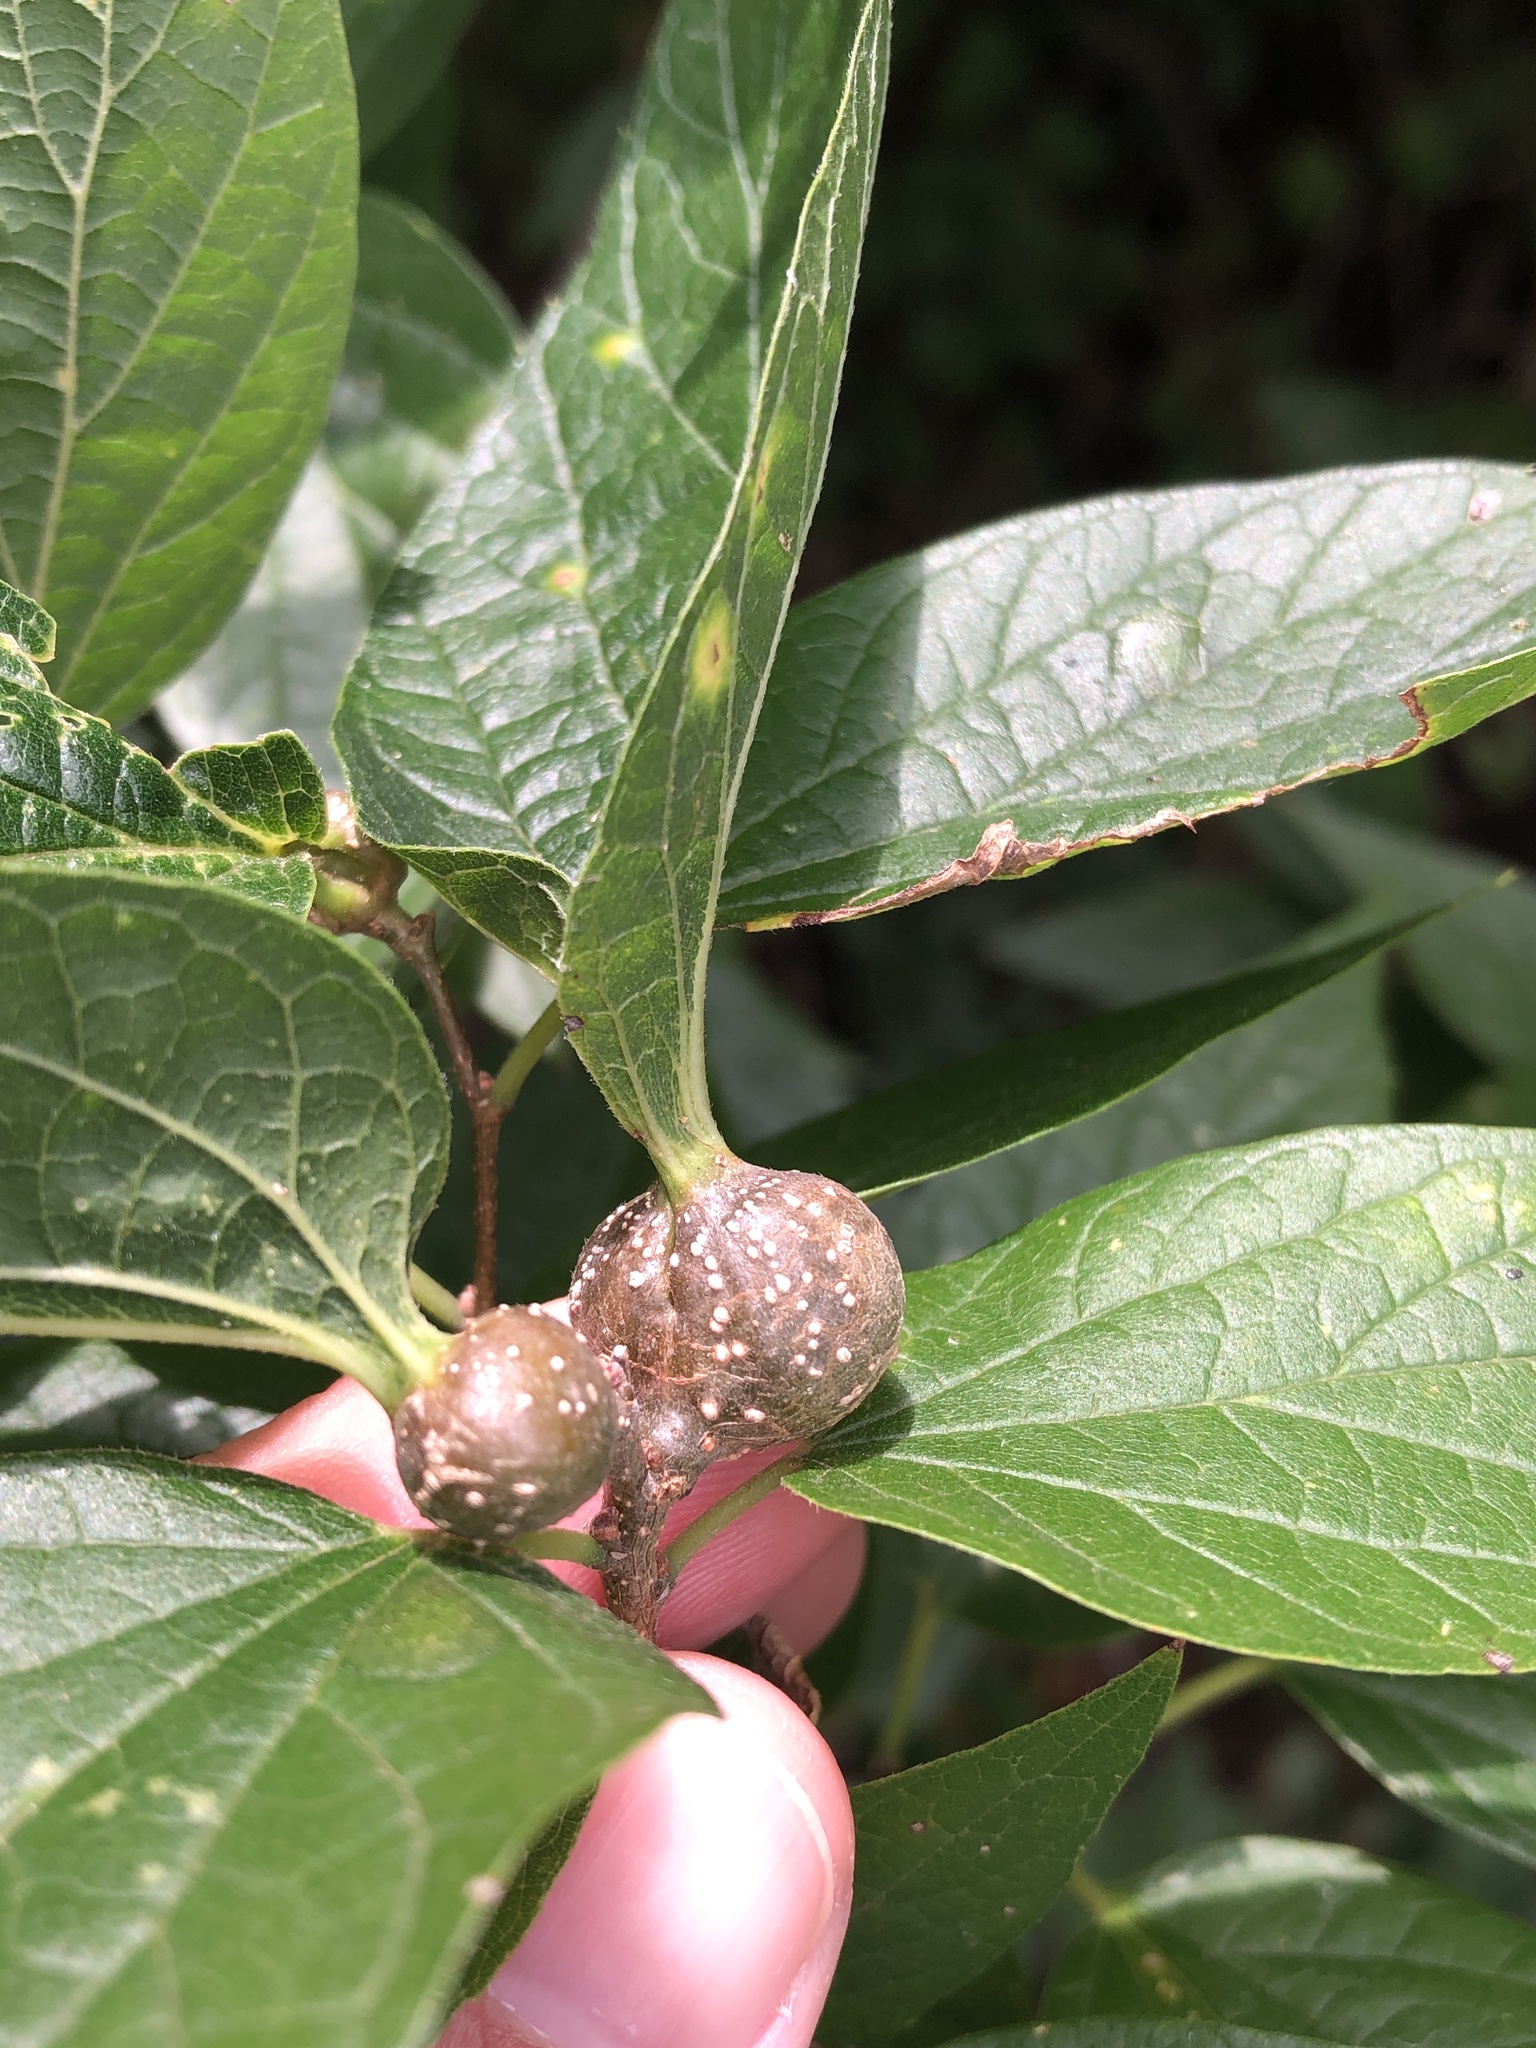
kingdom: Animalia
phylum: Arthropoda
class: Insecta
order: Hemiptera
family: Aphalaridae
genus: Pachypsylla
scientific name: Pachypsylla venusta
